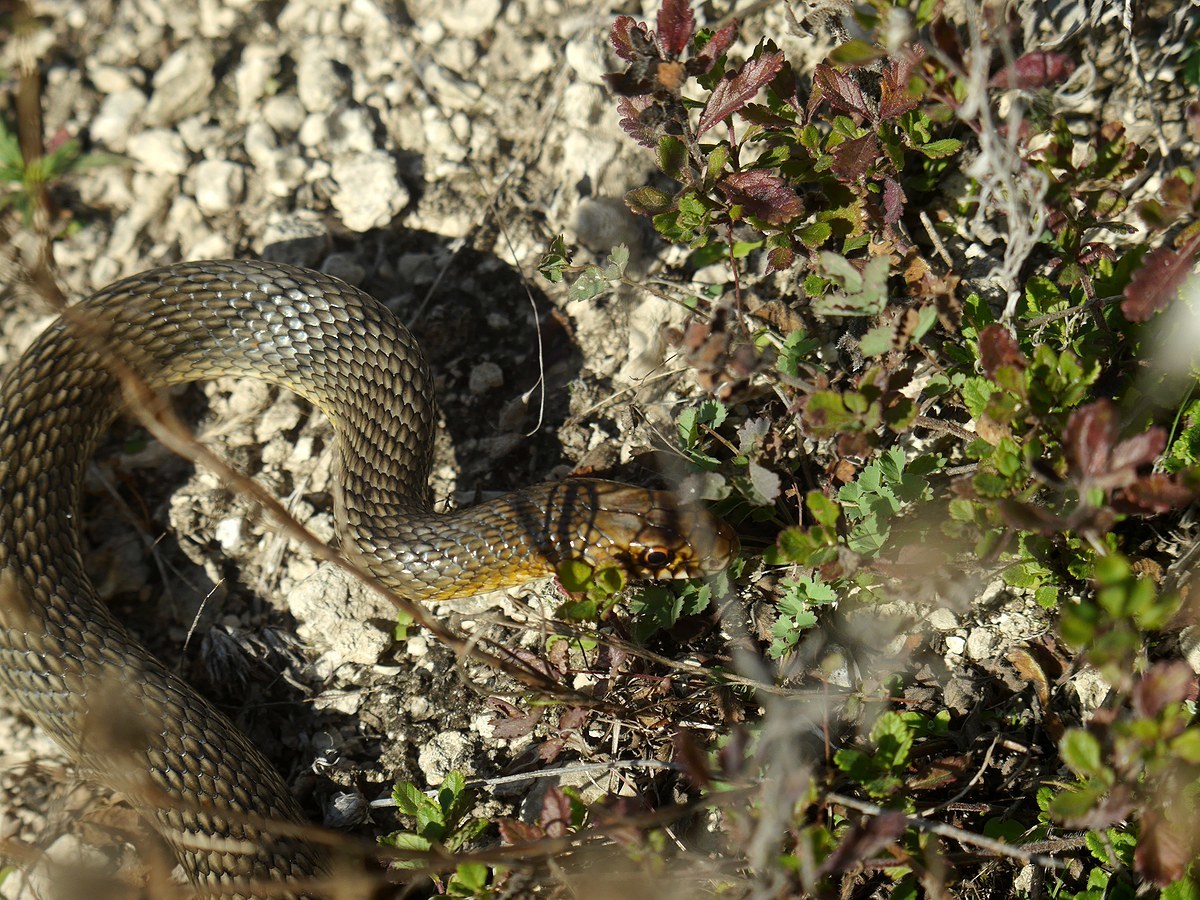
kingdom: Animalia
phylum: Chordata
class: Squamata
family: Colubridae
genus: Dolichophis
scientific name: Dolichophis caspius
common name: Large whip snake
